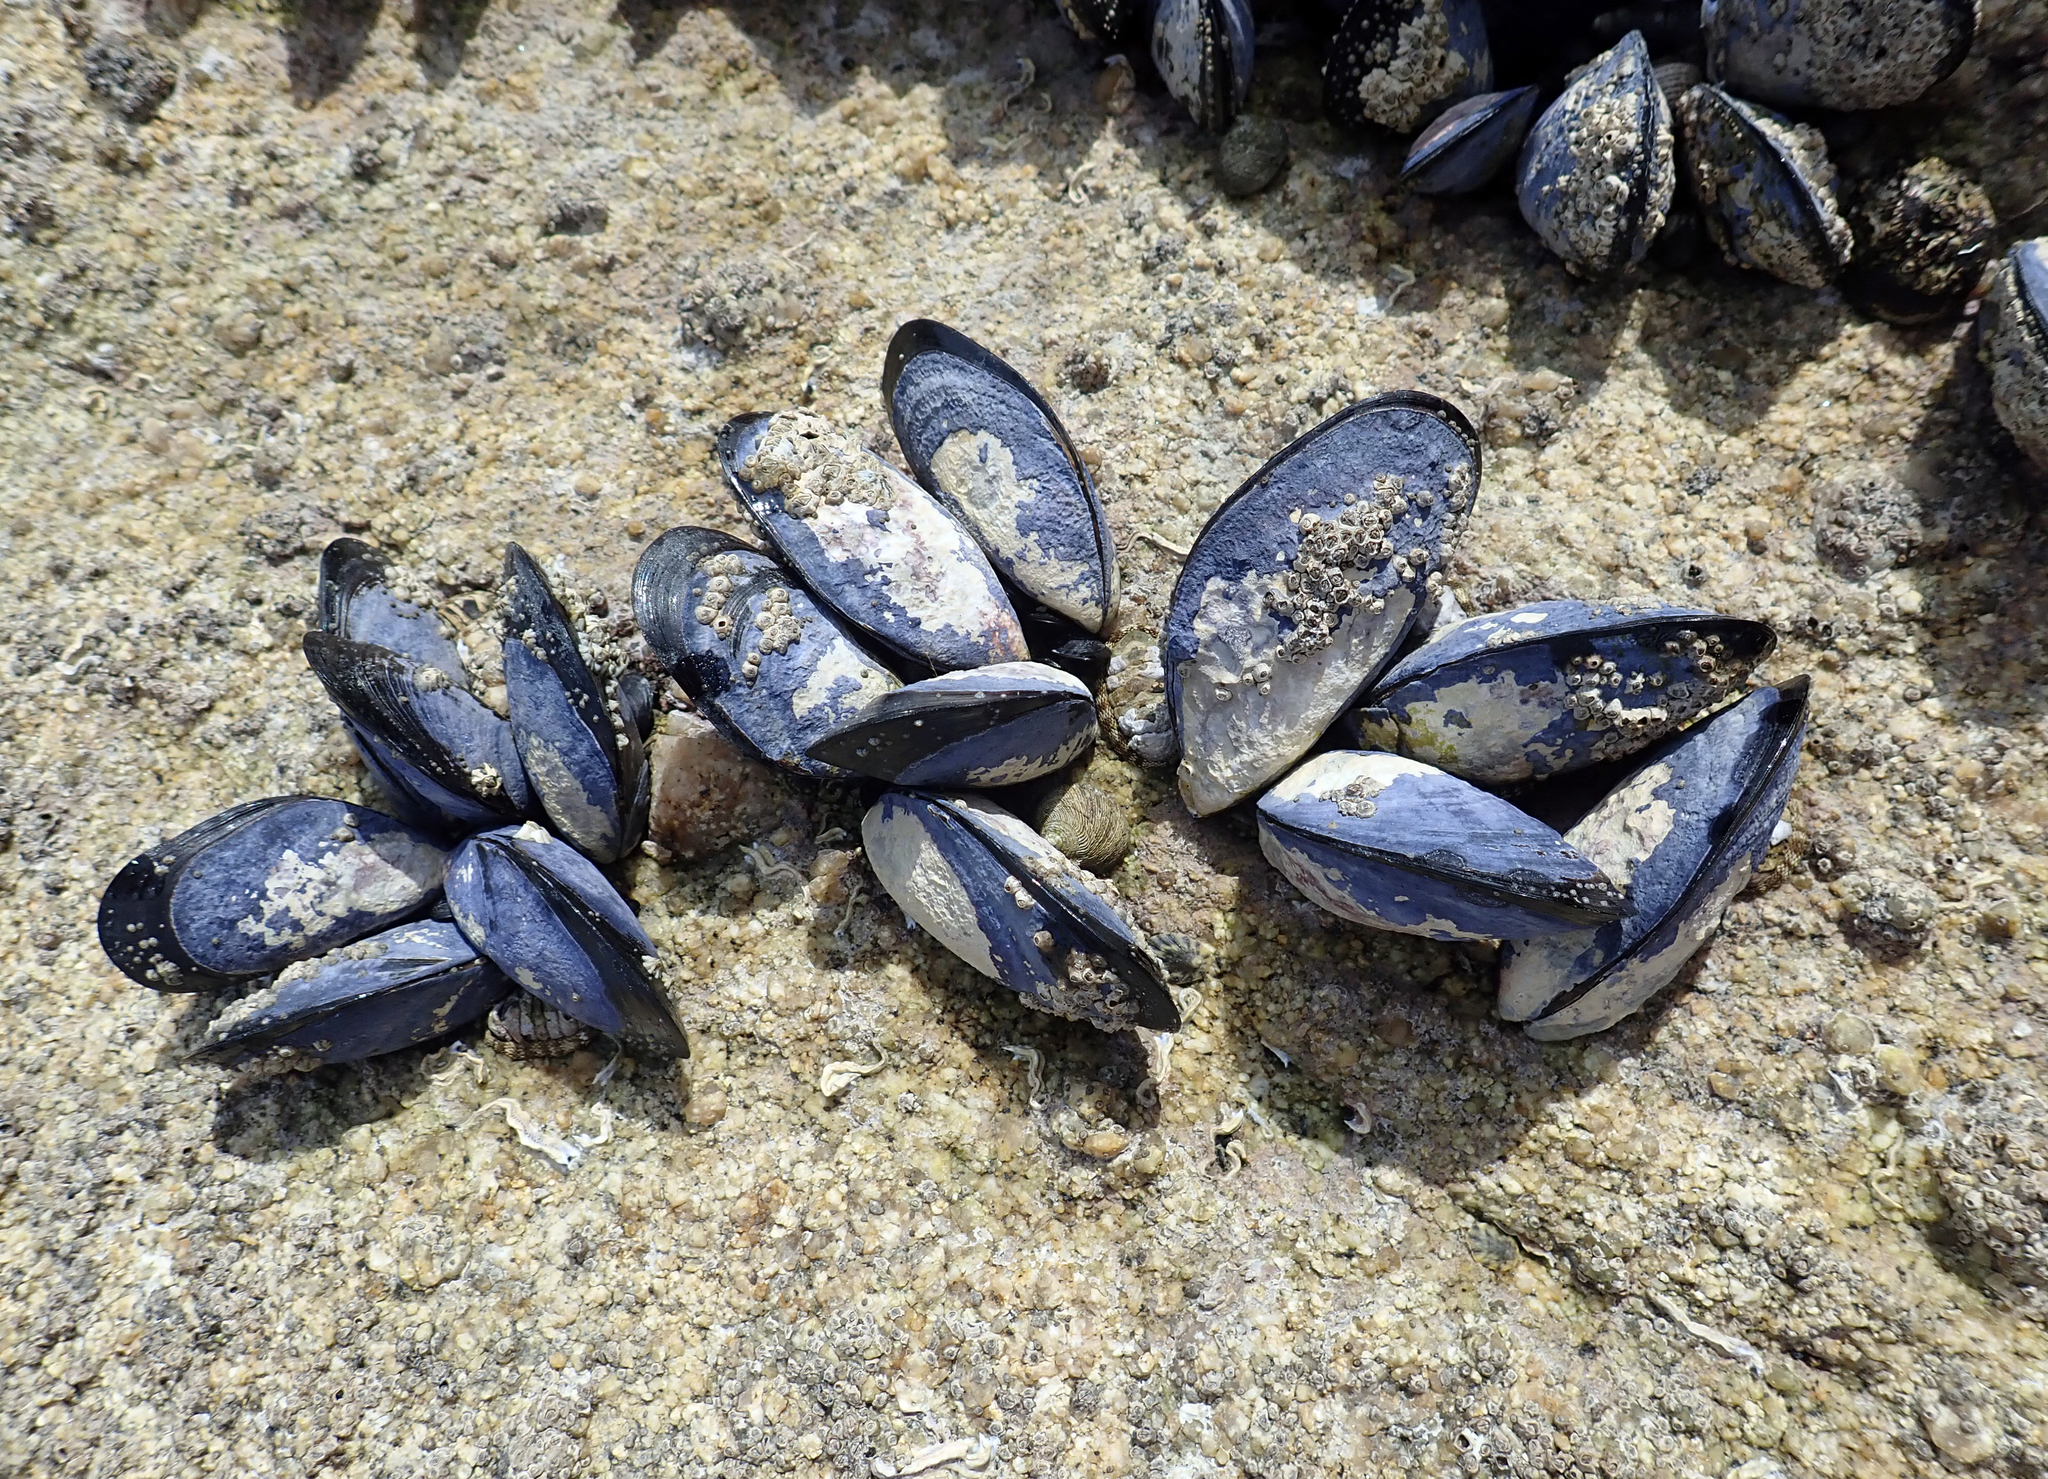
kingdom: Animalia
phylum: Mollusca
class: Bivalvia
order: Mytilida
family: Mytilidae
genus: Mytilus
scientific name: Mytilus planulatus
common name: Australian mussel
